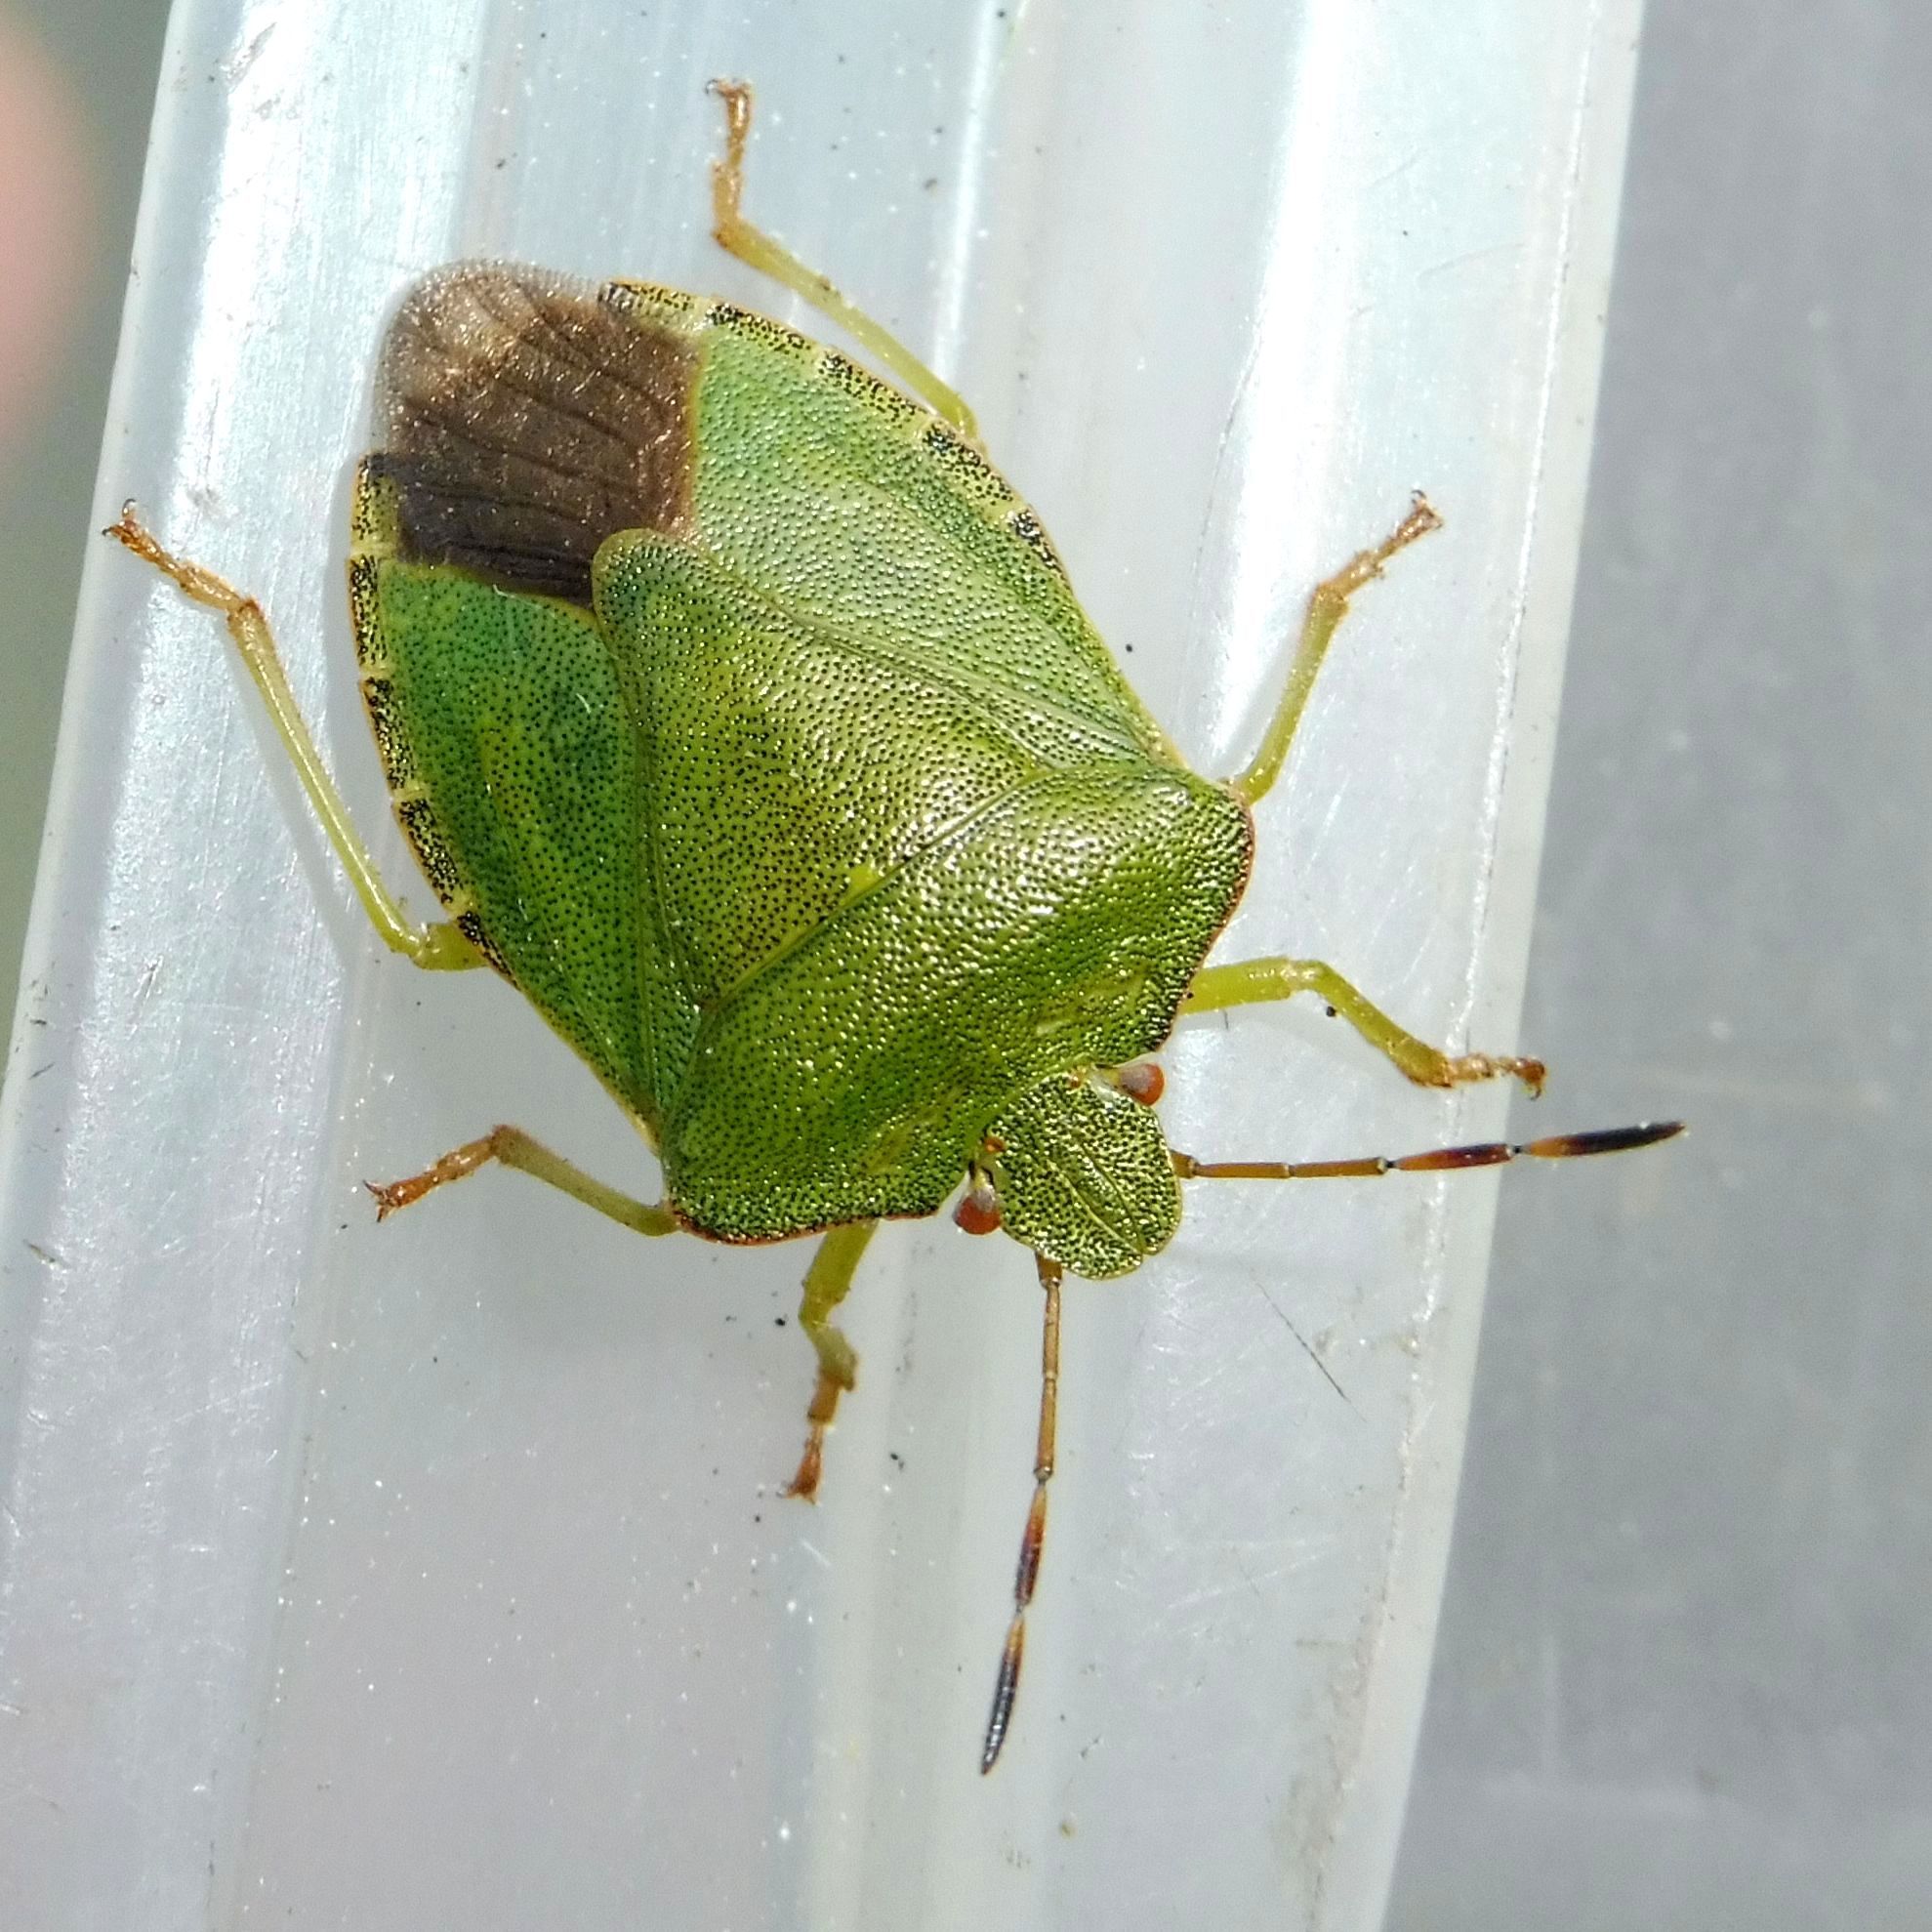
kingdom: Animalia
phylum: Arthropoda
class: Insecta
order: Hemiptera
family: Pentatomidae
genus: Palomena
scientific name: Palomena prasina
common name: Green shieldbug
